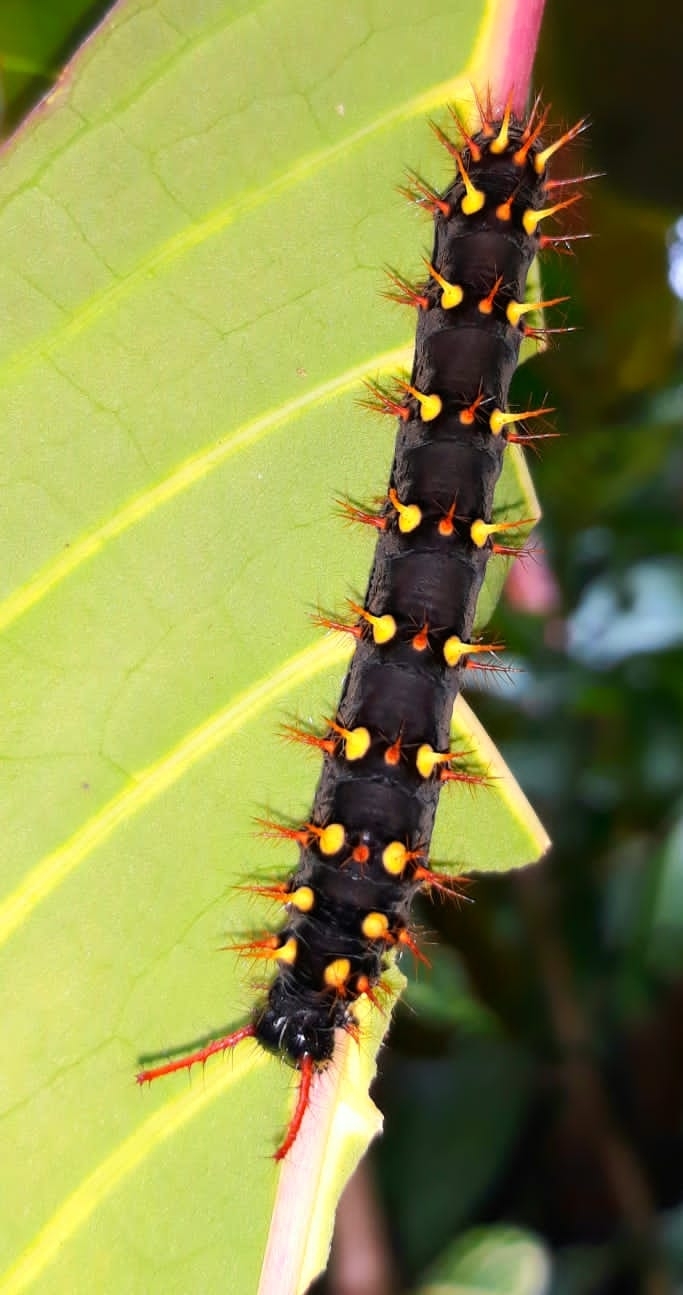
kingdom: Animalia
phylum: Arthropoda
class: Insecta
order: Lepidoptera
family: Nymphalidae
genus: Siproeta
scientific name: Siproeta epaphus
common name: Rusty-tipped page
